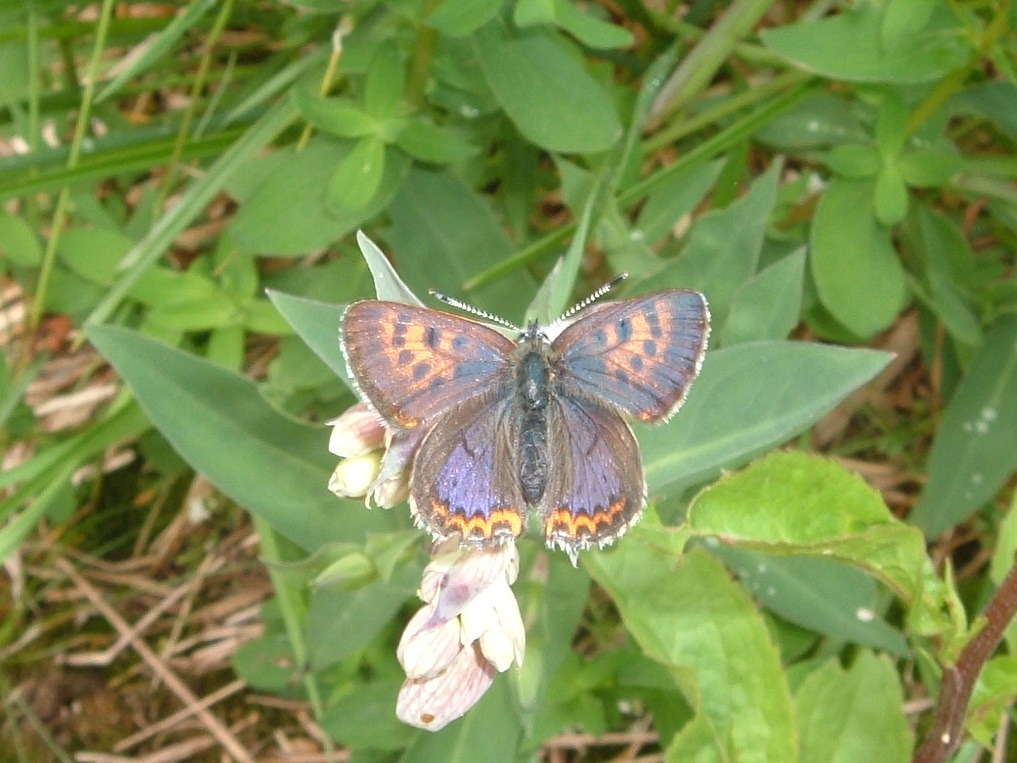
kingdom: Animalia
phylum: Arthropoda
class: Insecta
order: Lepidoptera
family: Lycaenidae
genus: Helleia
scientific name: Helleia helle
